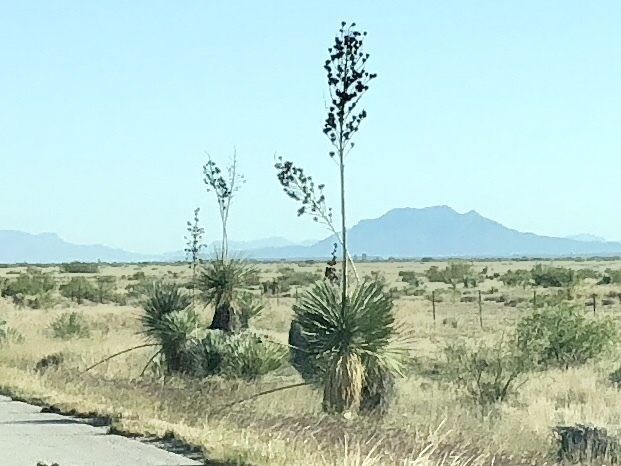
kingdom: Plantae
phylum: Tracheophyta
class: Liliopsida
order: Asparagales
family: Asparagaceae
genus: Yucca
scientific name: Yucca elata
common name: Palmella
